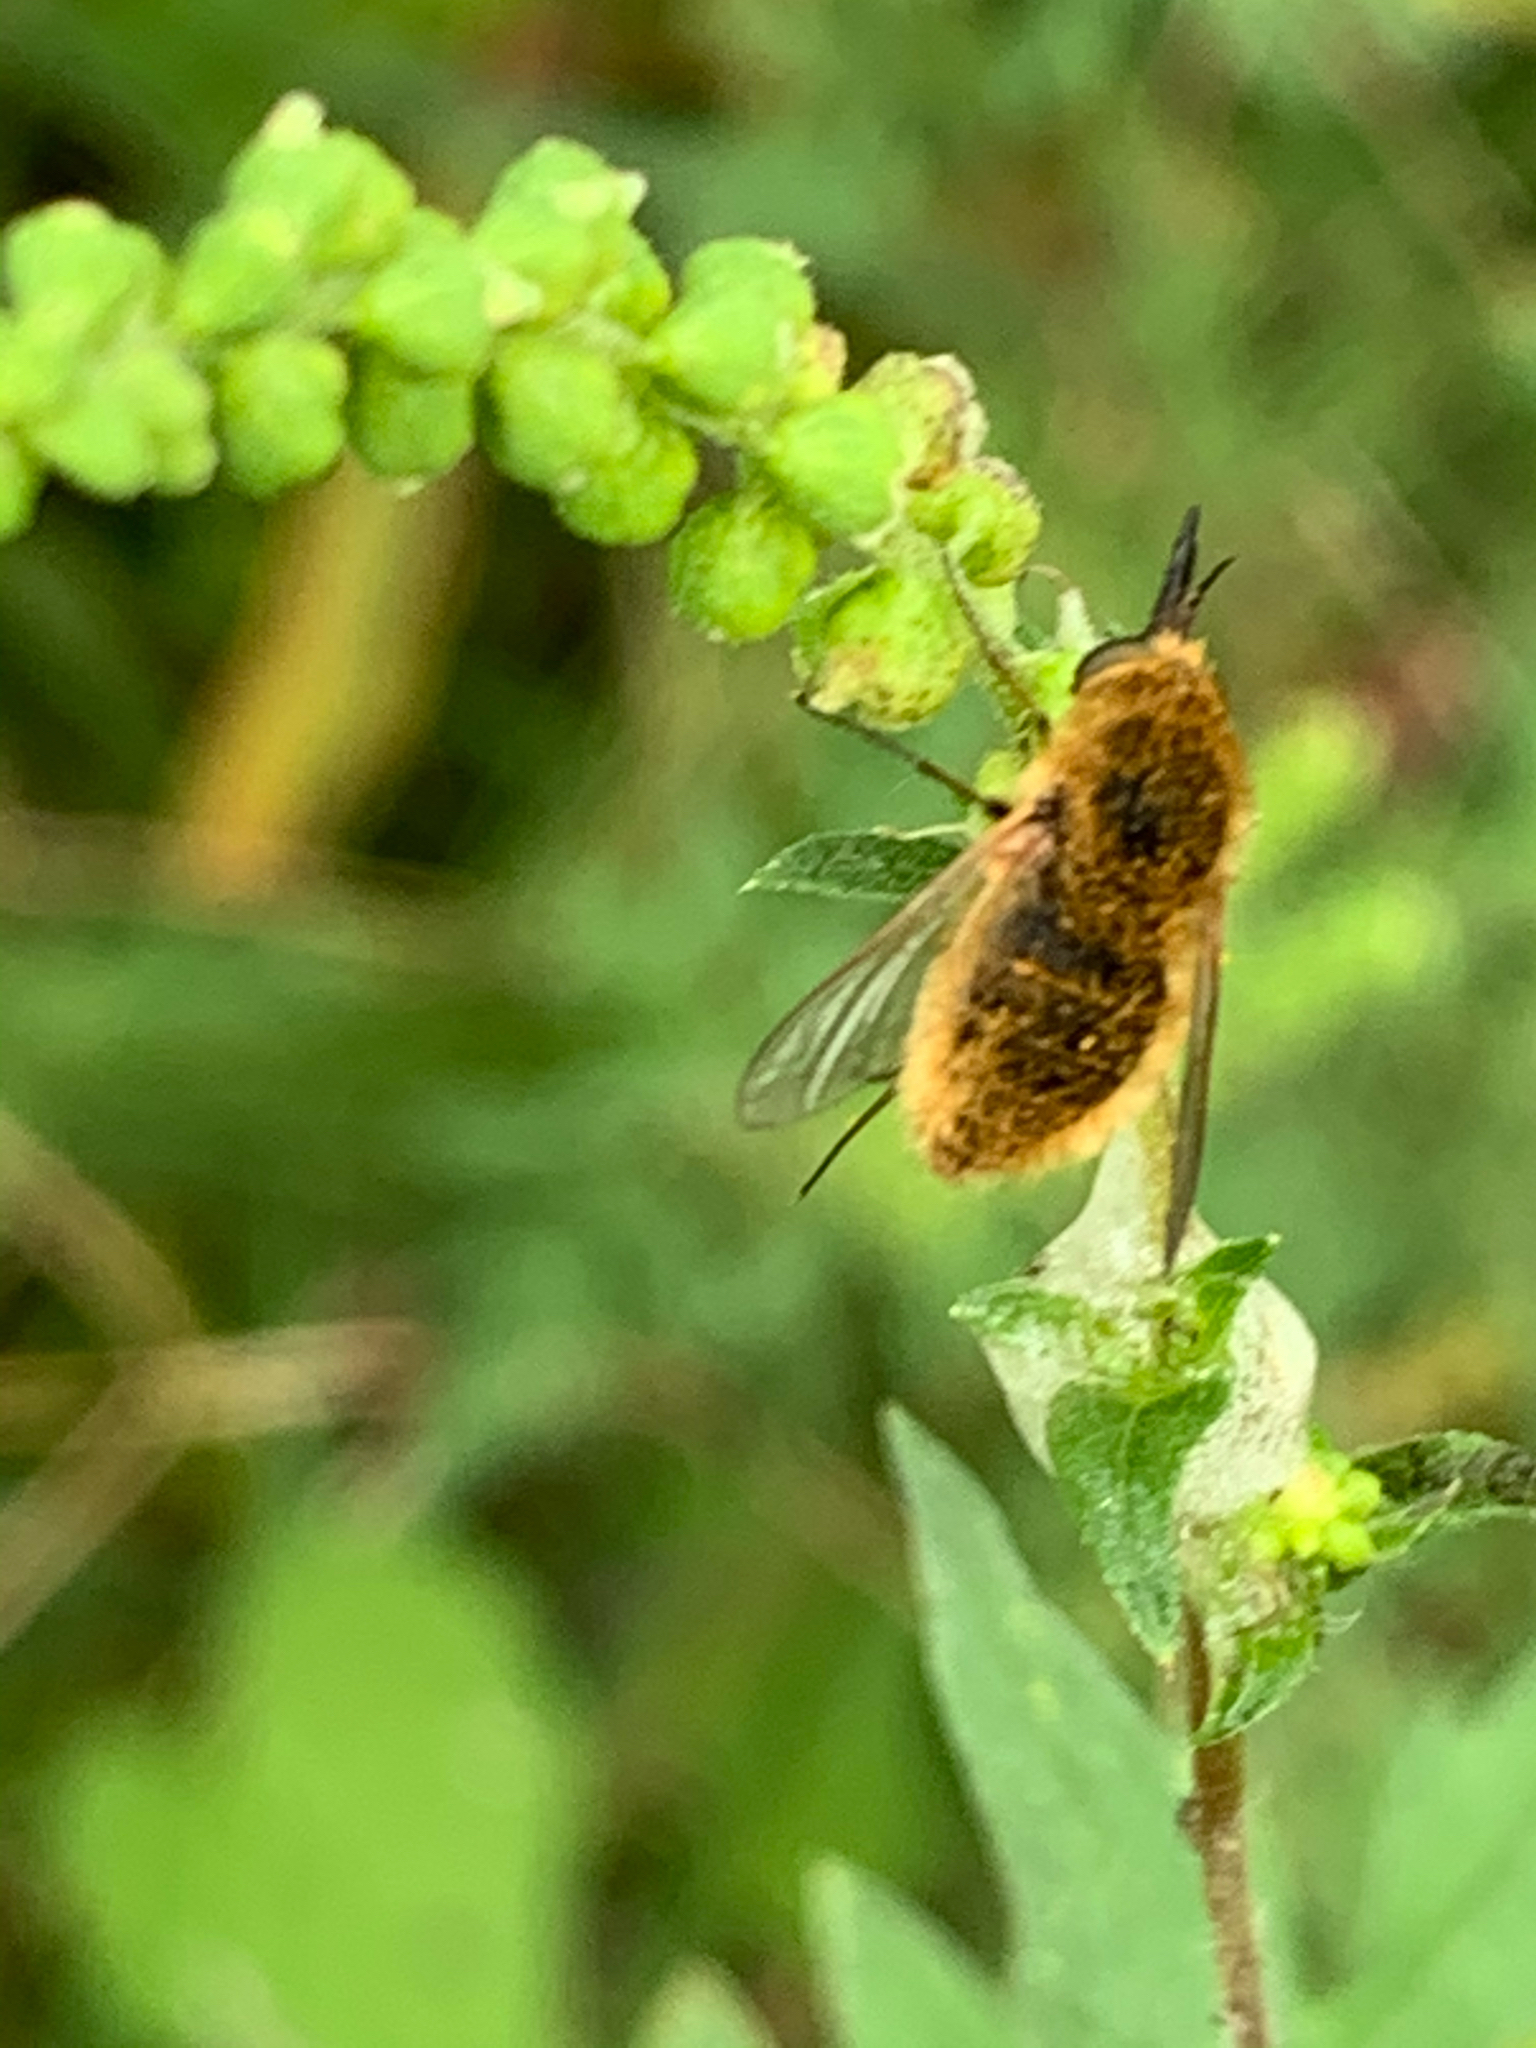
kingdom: Animalia
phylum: Arthropoda
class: Insecta
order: Diptera
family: Bombyliidae
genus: Sparnopolius
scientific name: Sparnopolius
